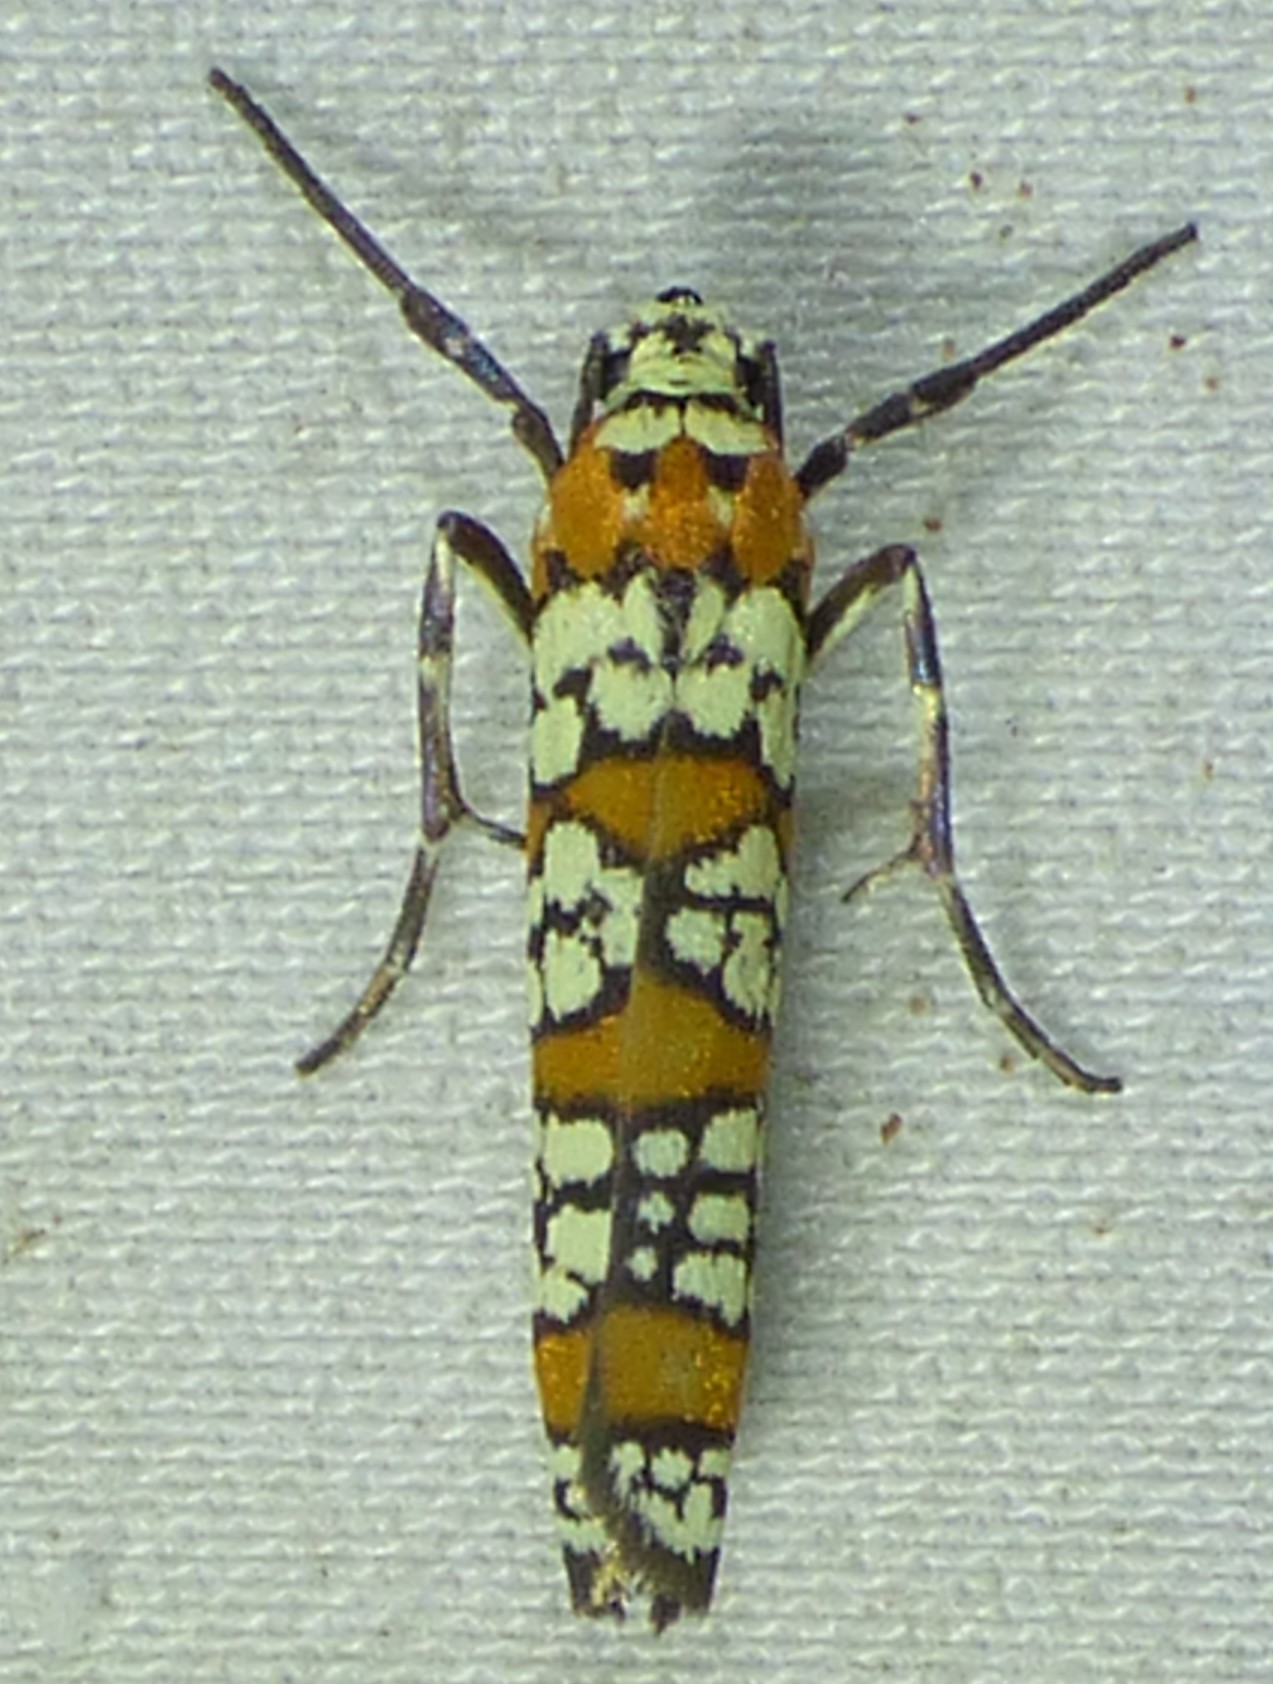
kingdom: Animalia
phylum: Arthropoda
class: Insecta
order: Lepidoptera
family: Attevidae
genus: Atteva
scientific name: Atteva punctella
